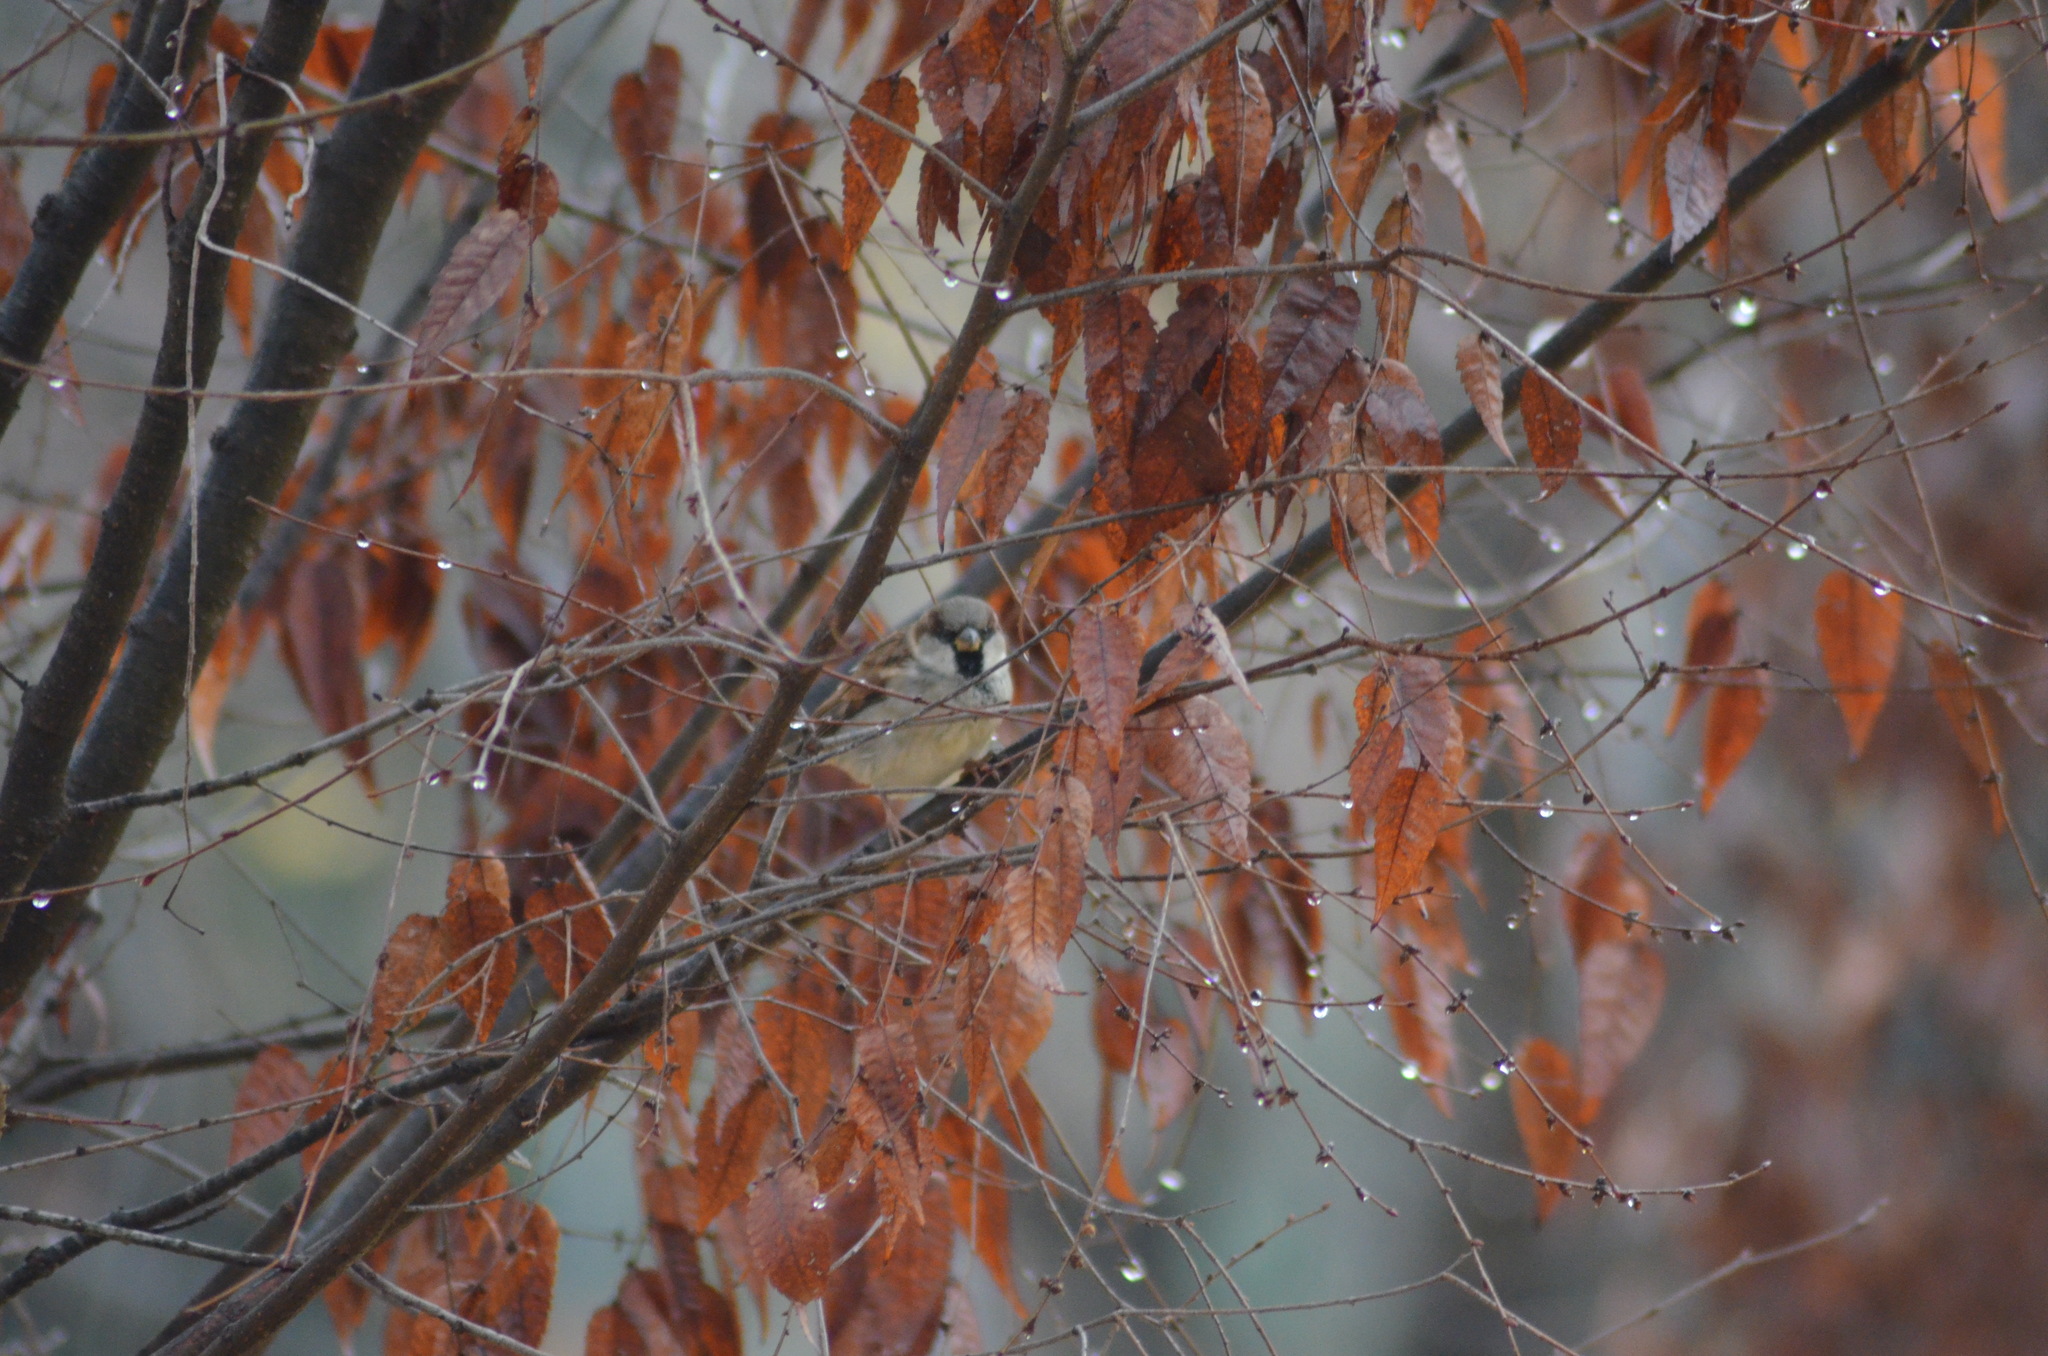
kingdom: Animalia
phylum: Chordata
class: Aves
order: Passeriformes
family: Passeridae
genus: Passer
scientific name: Passer domesticus
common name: House sparrow
